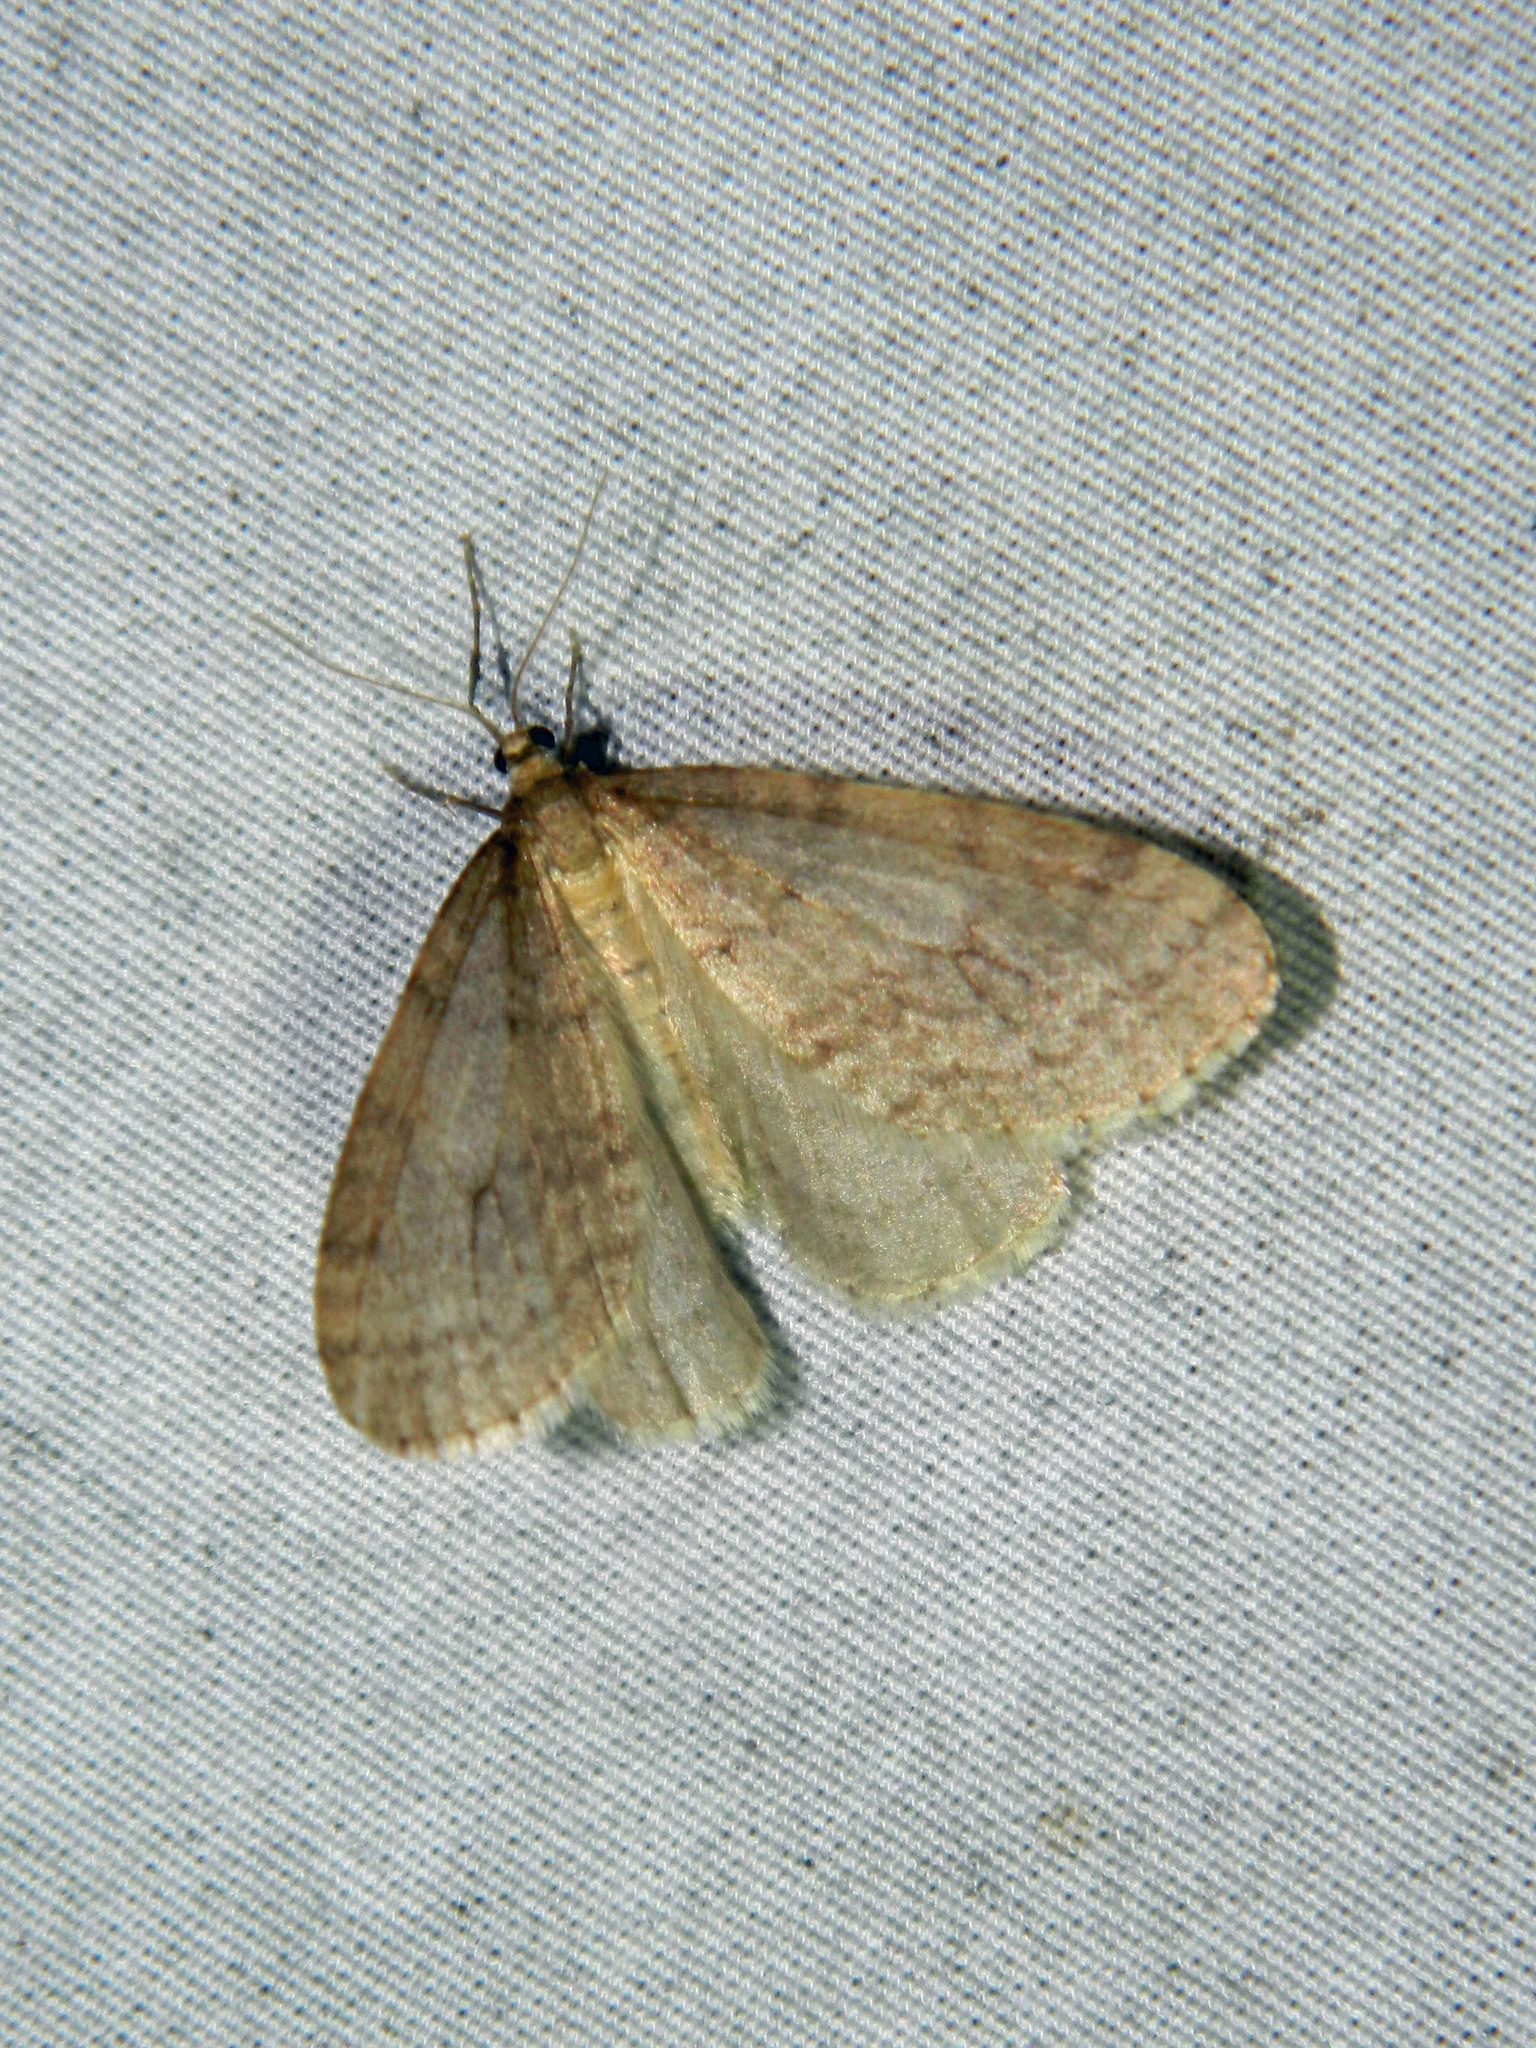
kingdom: Animalia
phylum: Arthropoda
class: Insecta
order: Lepidoptera
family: Geometridae
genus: Operophtera
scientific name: Operophtera bruceata
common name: Bruce spanworm
